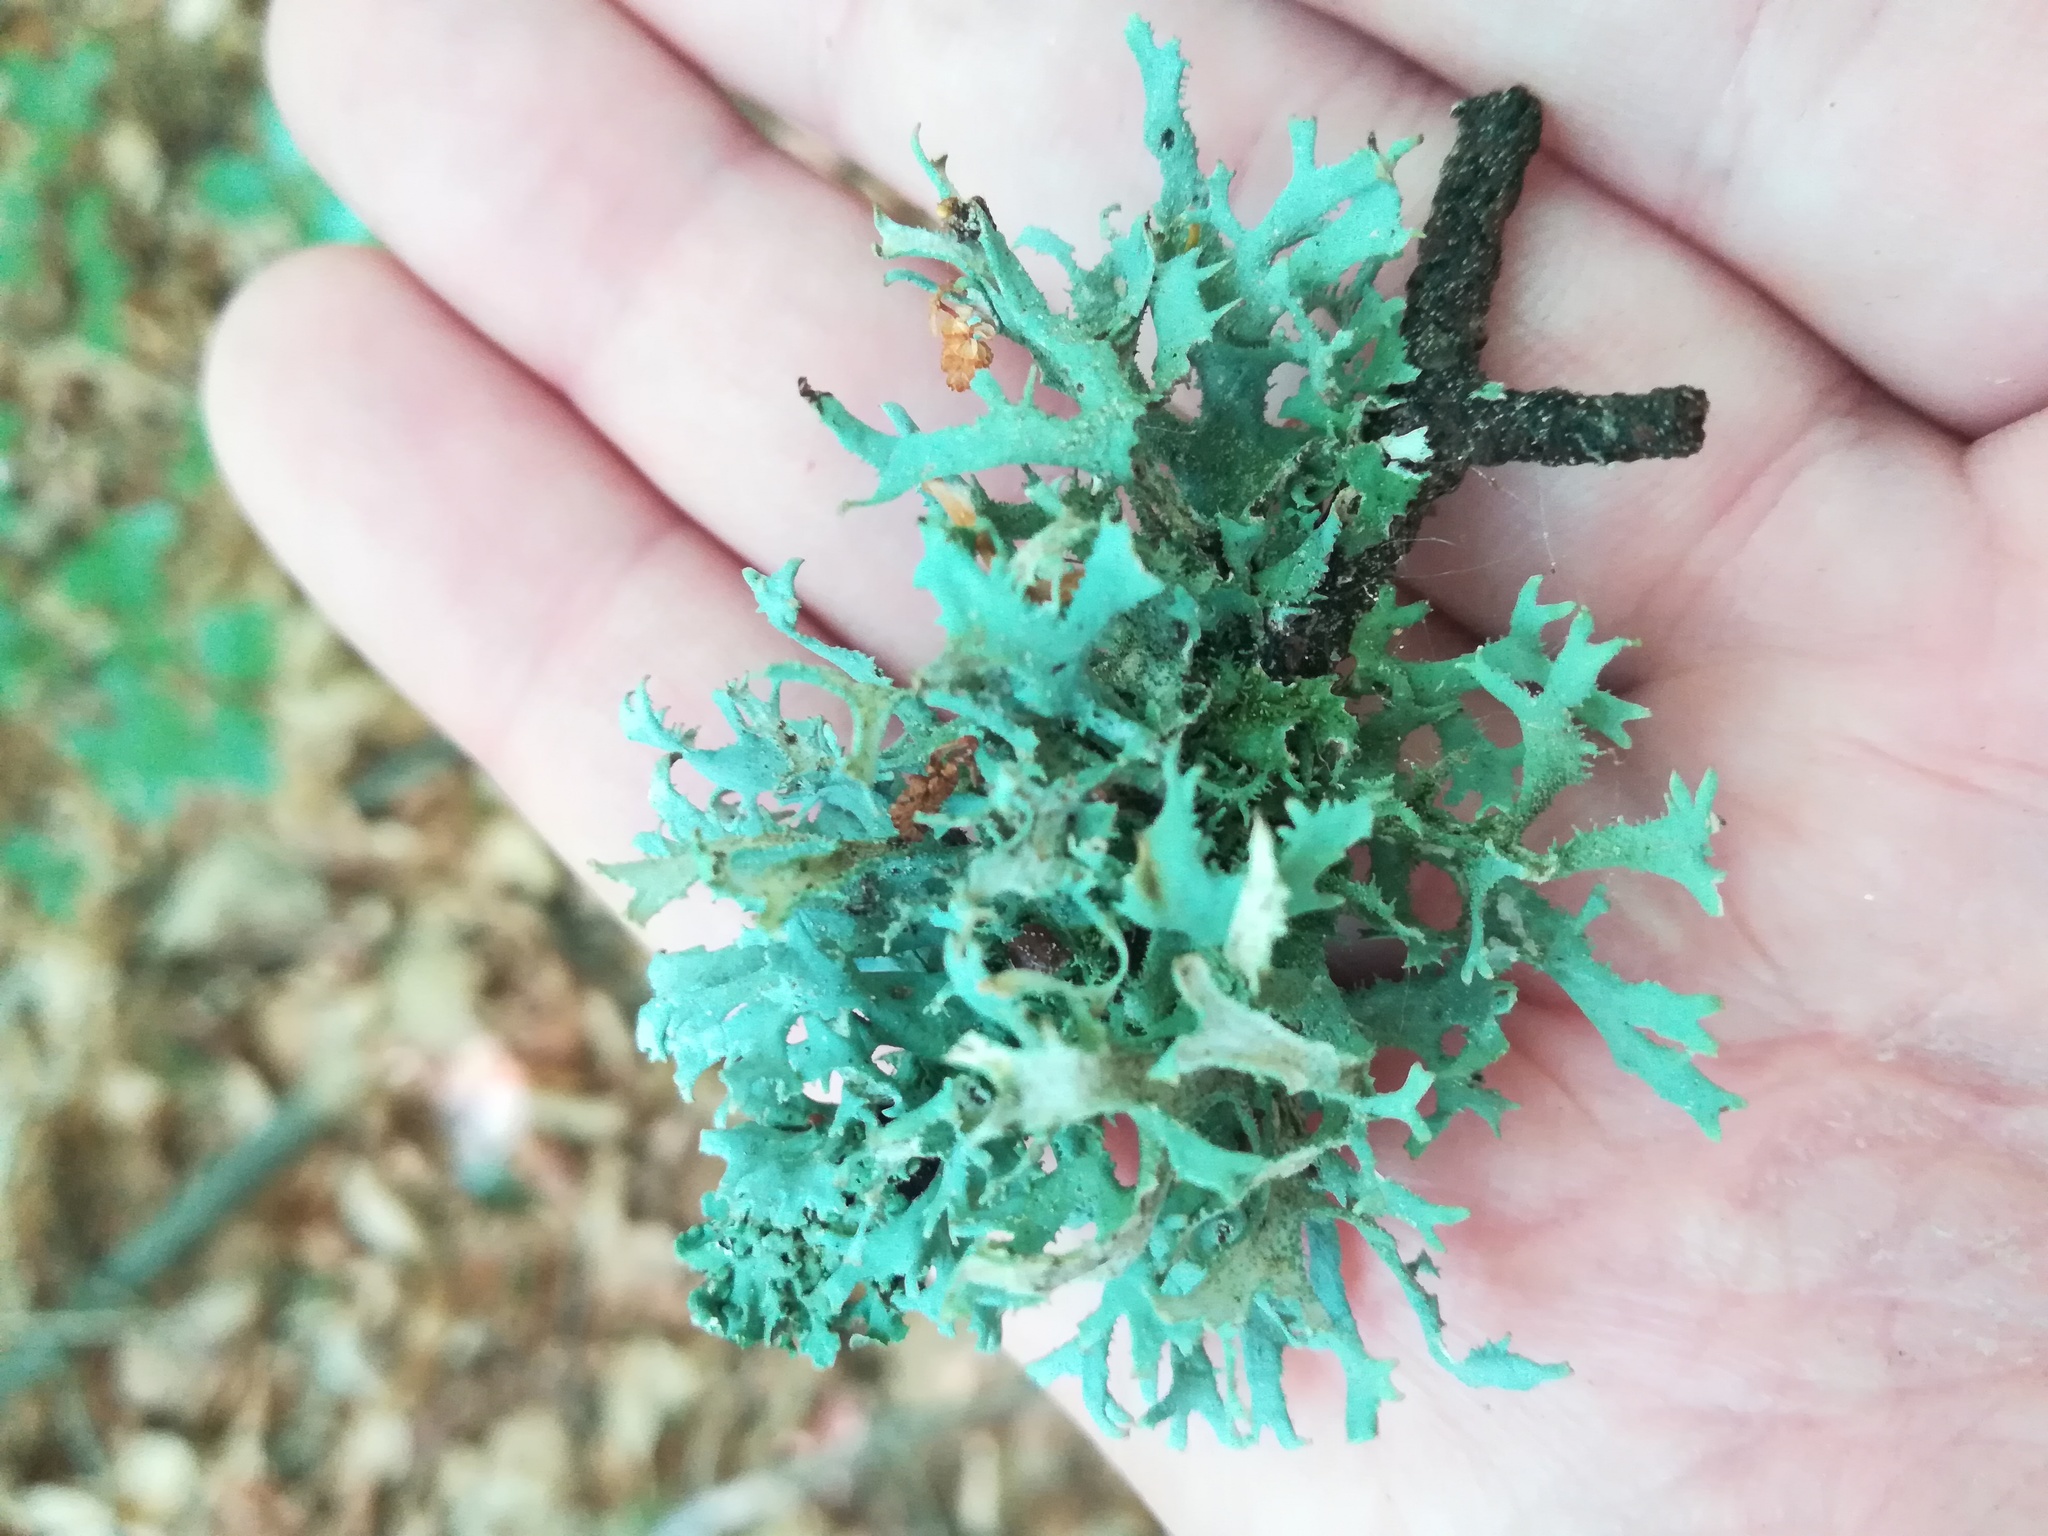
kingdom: Fungi
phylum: Ascomycota
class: Lecanoromycetes
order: Lecanorales
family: Parmeliaceae
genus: Pseudevernia
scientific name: Pseudevernia furfuracea
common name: Tree moss
